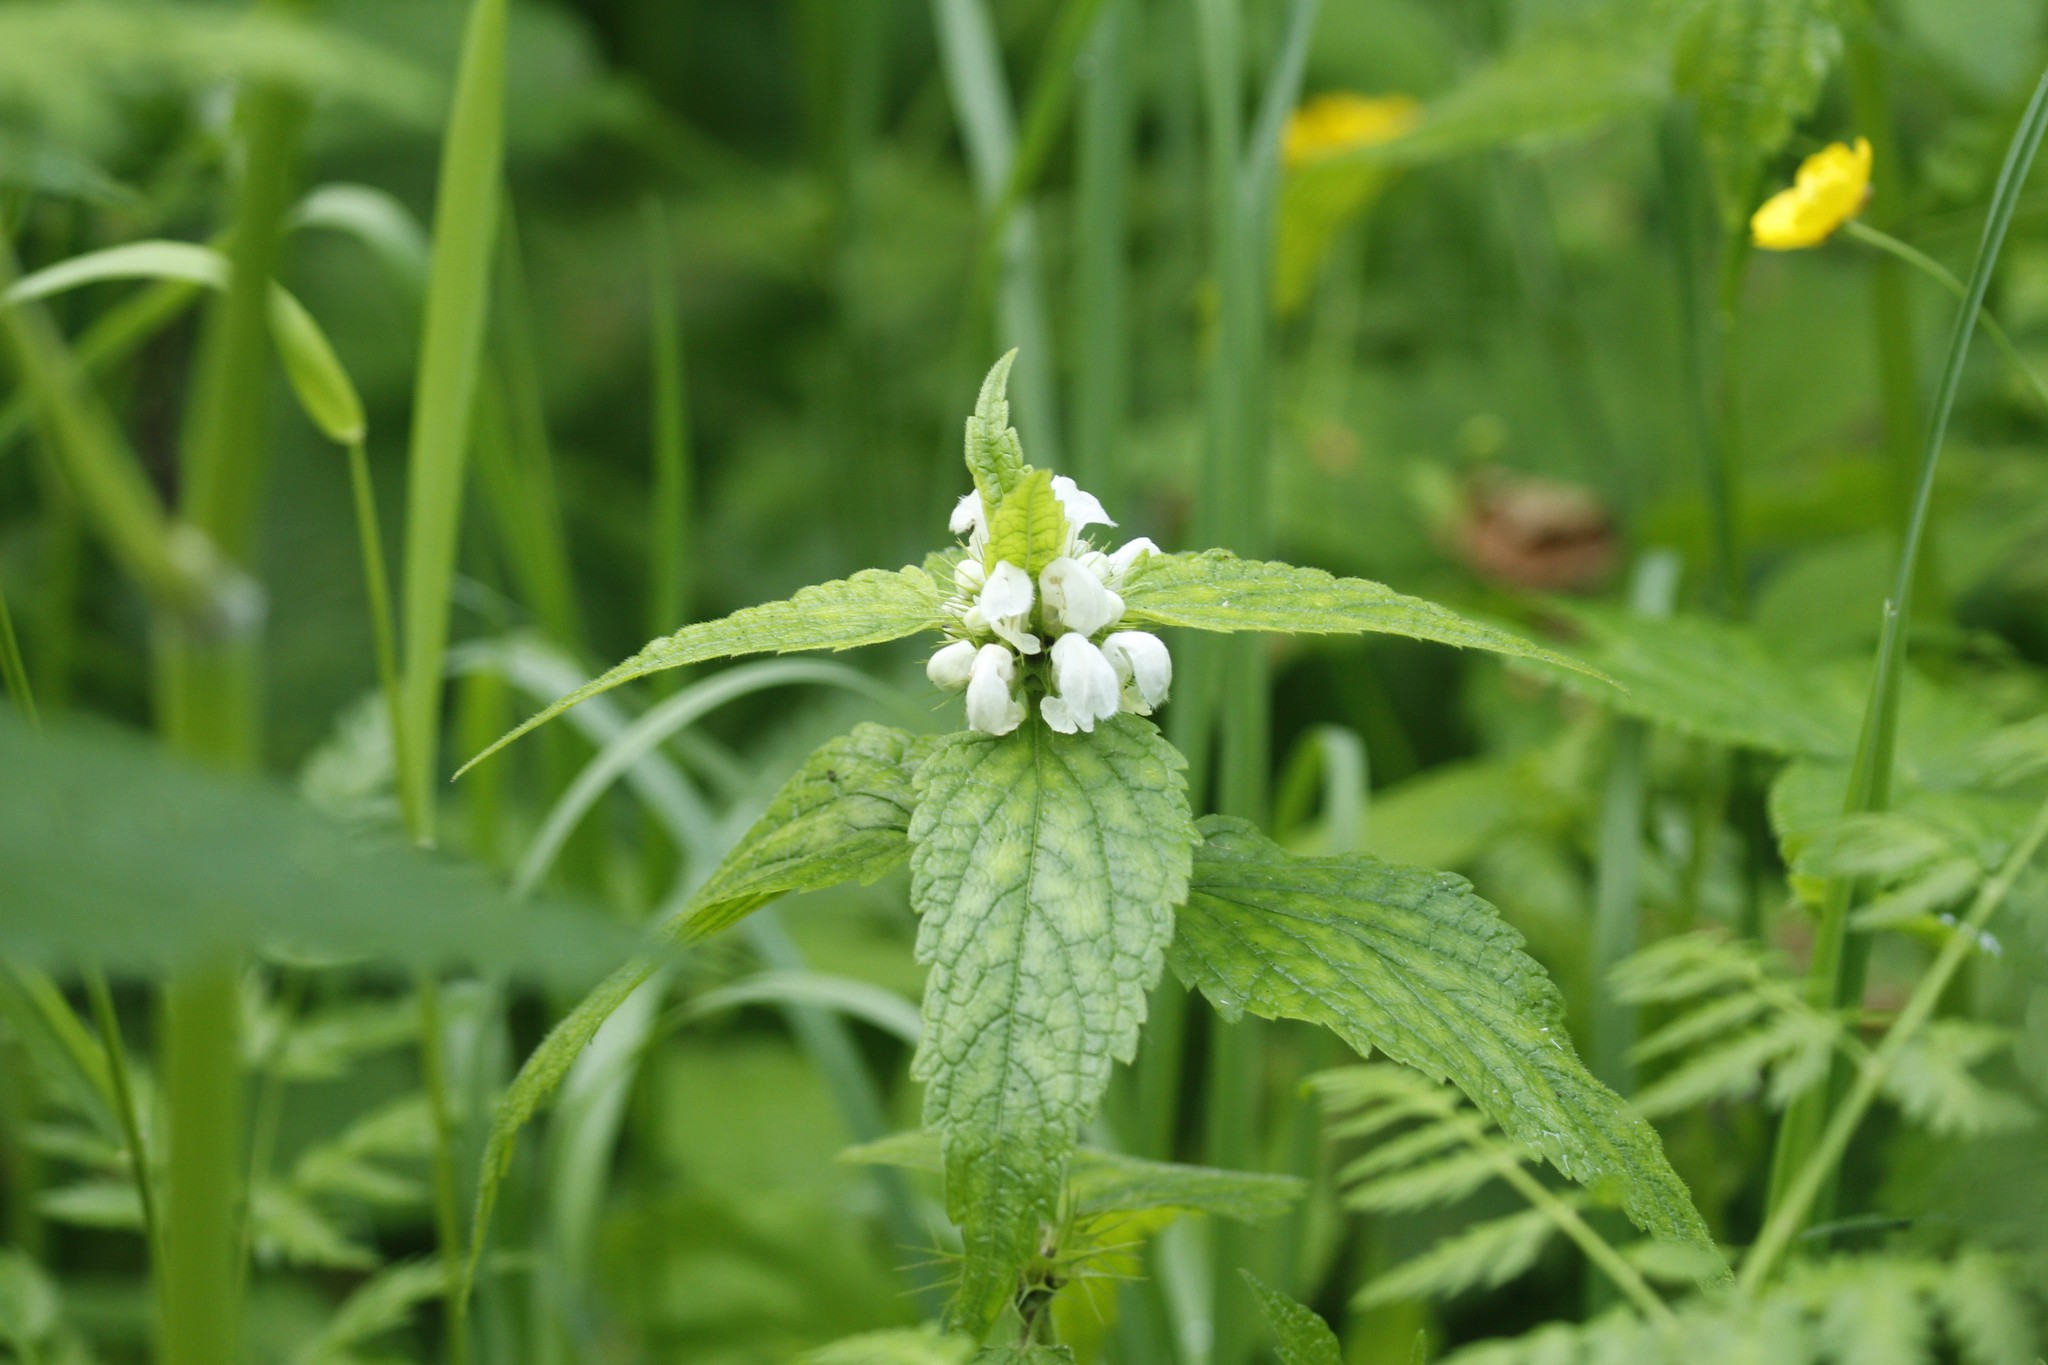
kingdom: Plantae
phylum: Tracheophyta
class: Magnoliopsida
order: Lamiales
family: Lamiaceae
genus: Lamium
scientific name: Lamium album
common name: White dead-nettle
